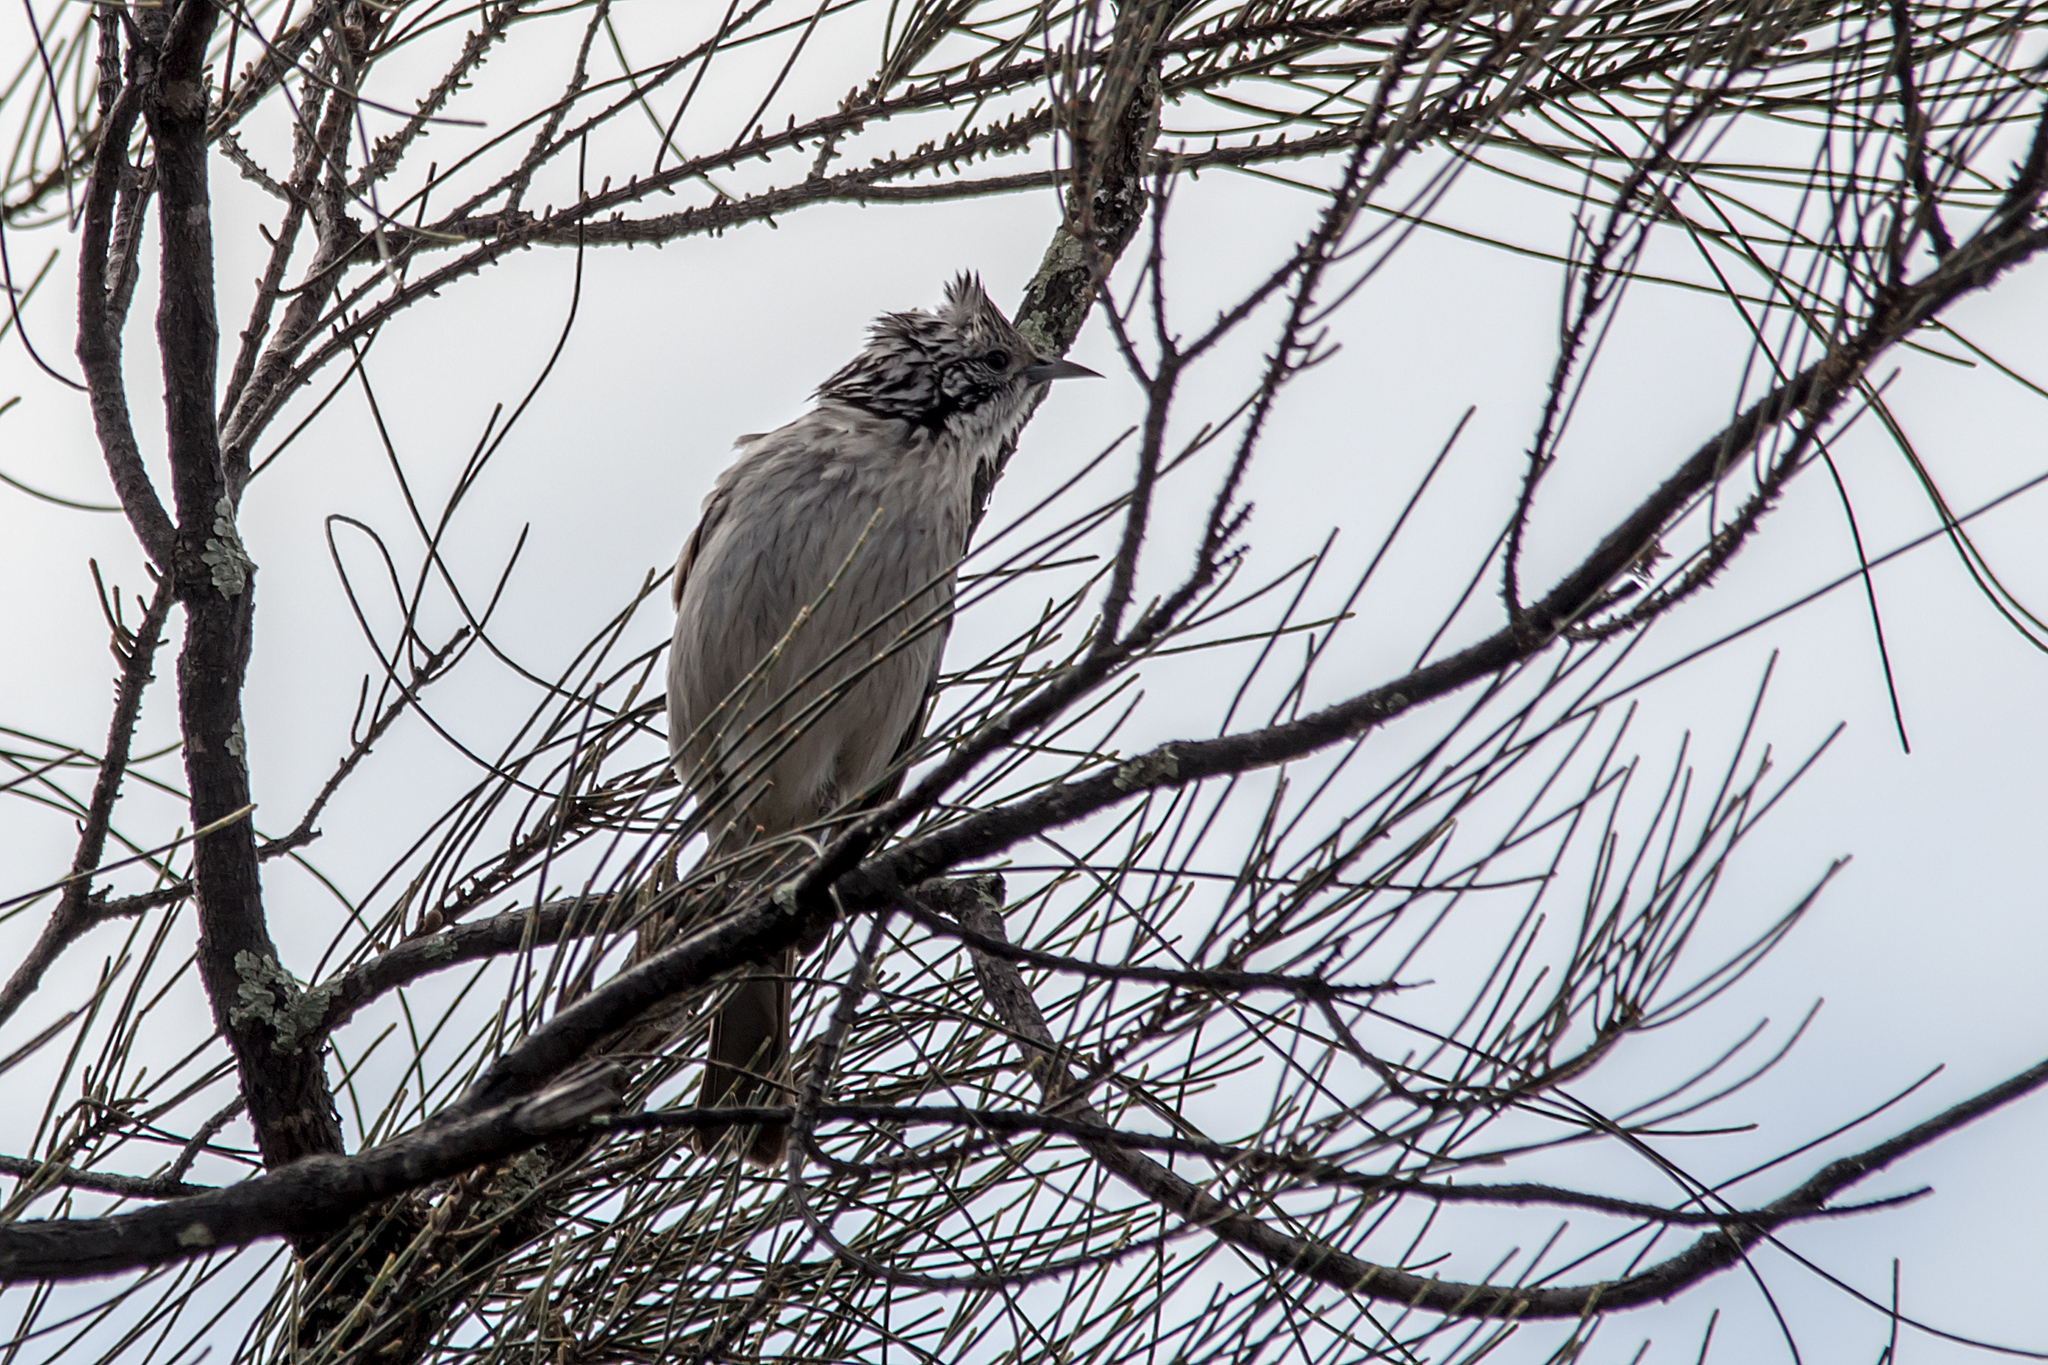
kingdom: Animalia
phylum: Chordata
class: Aves
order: Passeriformes
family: Meliphagidae
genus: Plectorhyncha
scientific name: Plectorhyncha lanceolata
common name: Striped honeyeater
